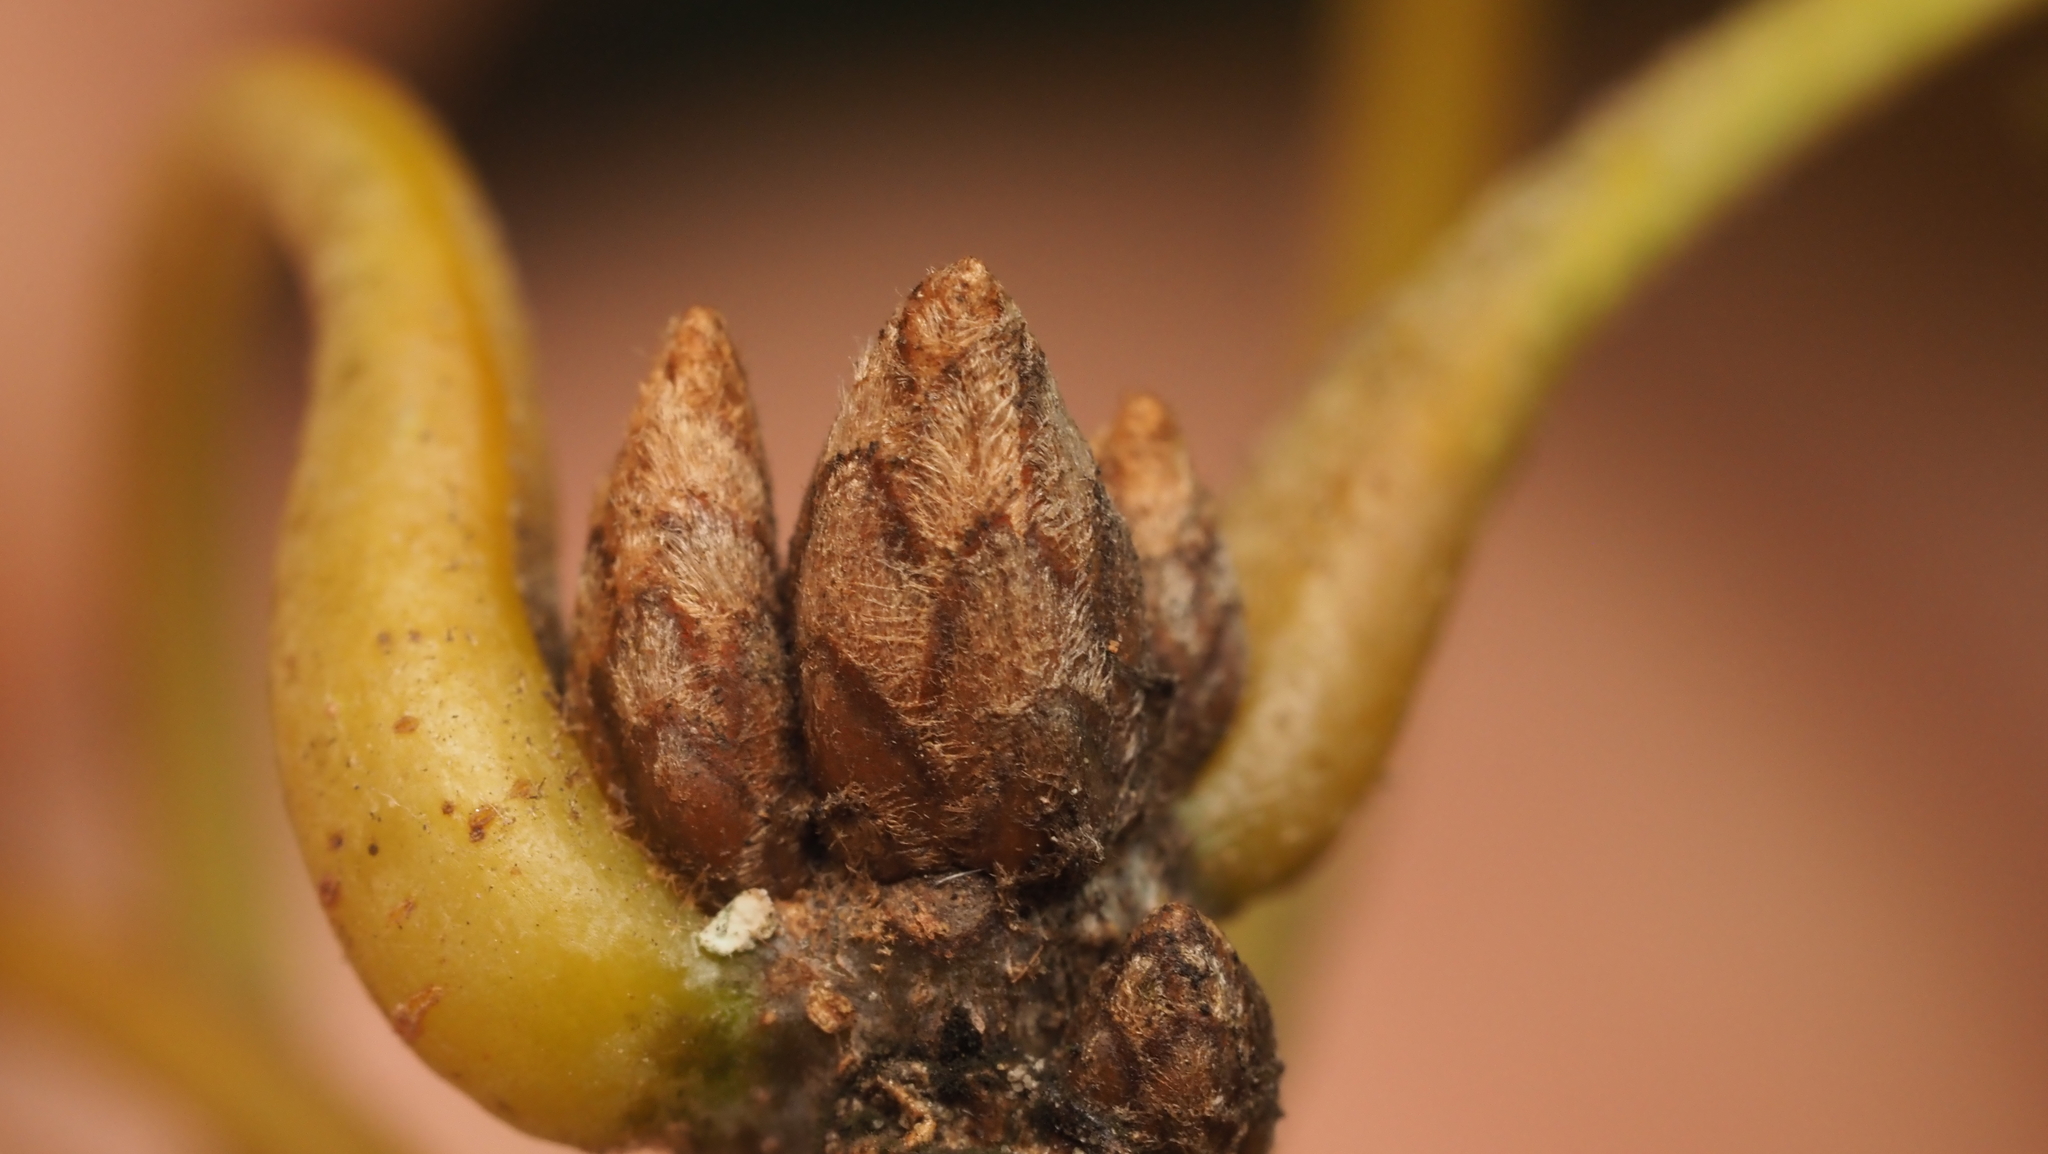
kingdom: Plantae
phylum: Tracheophyta
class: Magnoliopsida
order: Fagales
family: Fagaceae
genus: Quercus
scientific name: Quercus velutina
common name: Black oak
